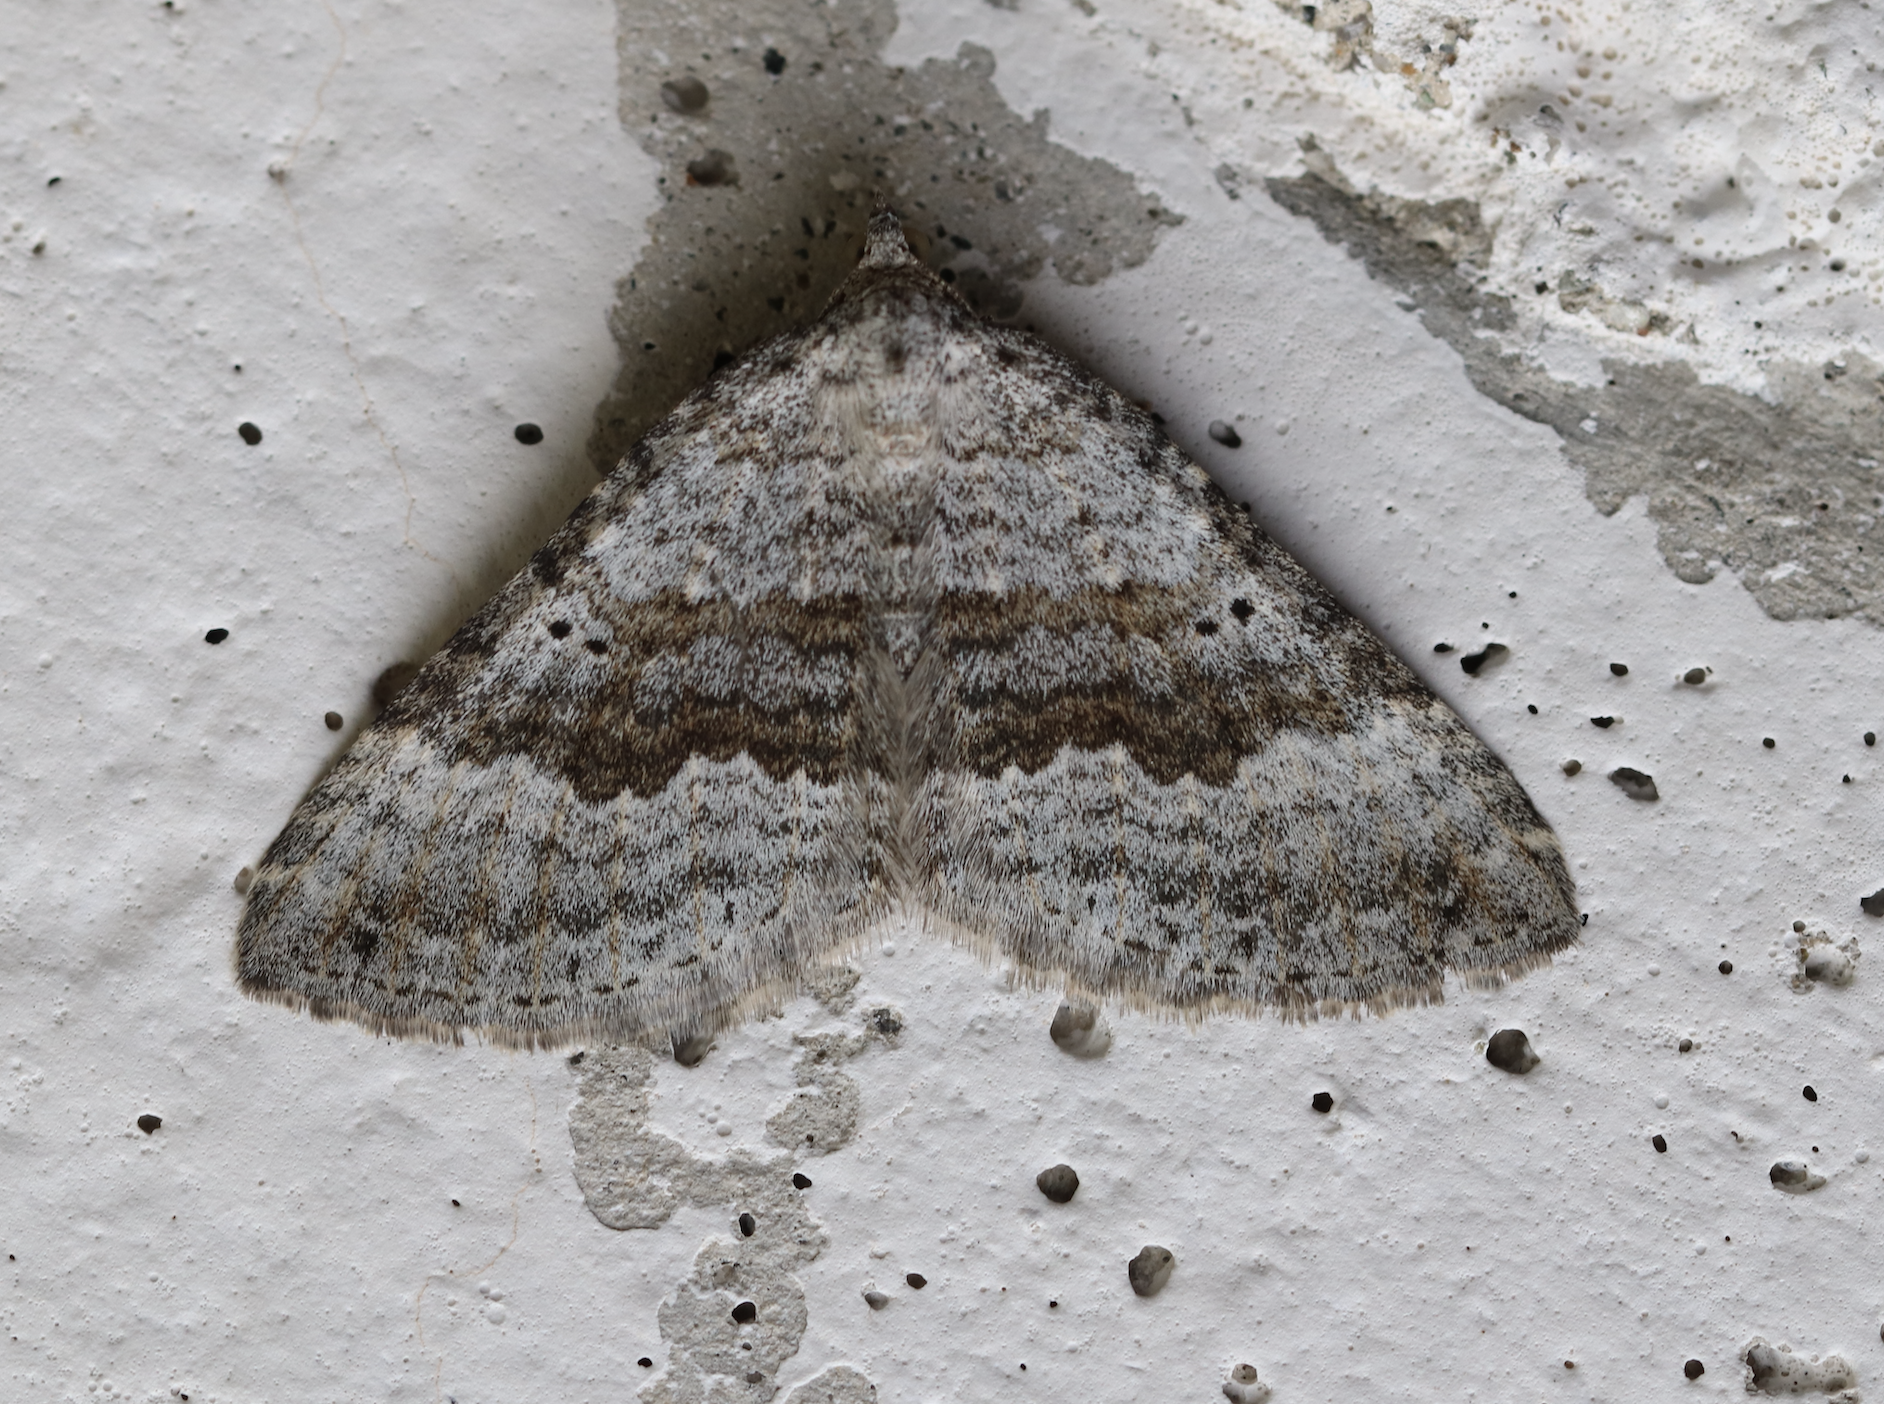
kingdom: Animalia
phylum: Arthropoda
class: Insecta
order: Lepidoptera
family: Geometridae
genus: Scotopteryx
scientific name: Scotopteryx bipunctaria
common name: Chalk carpet
